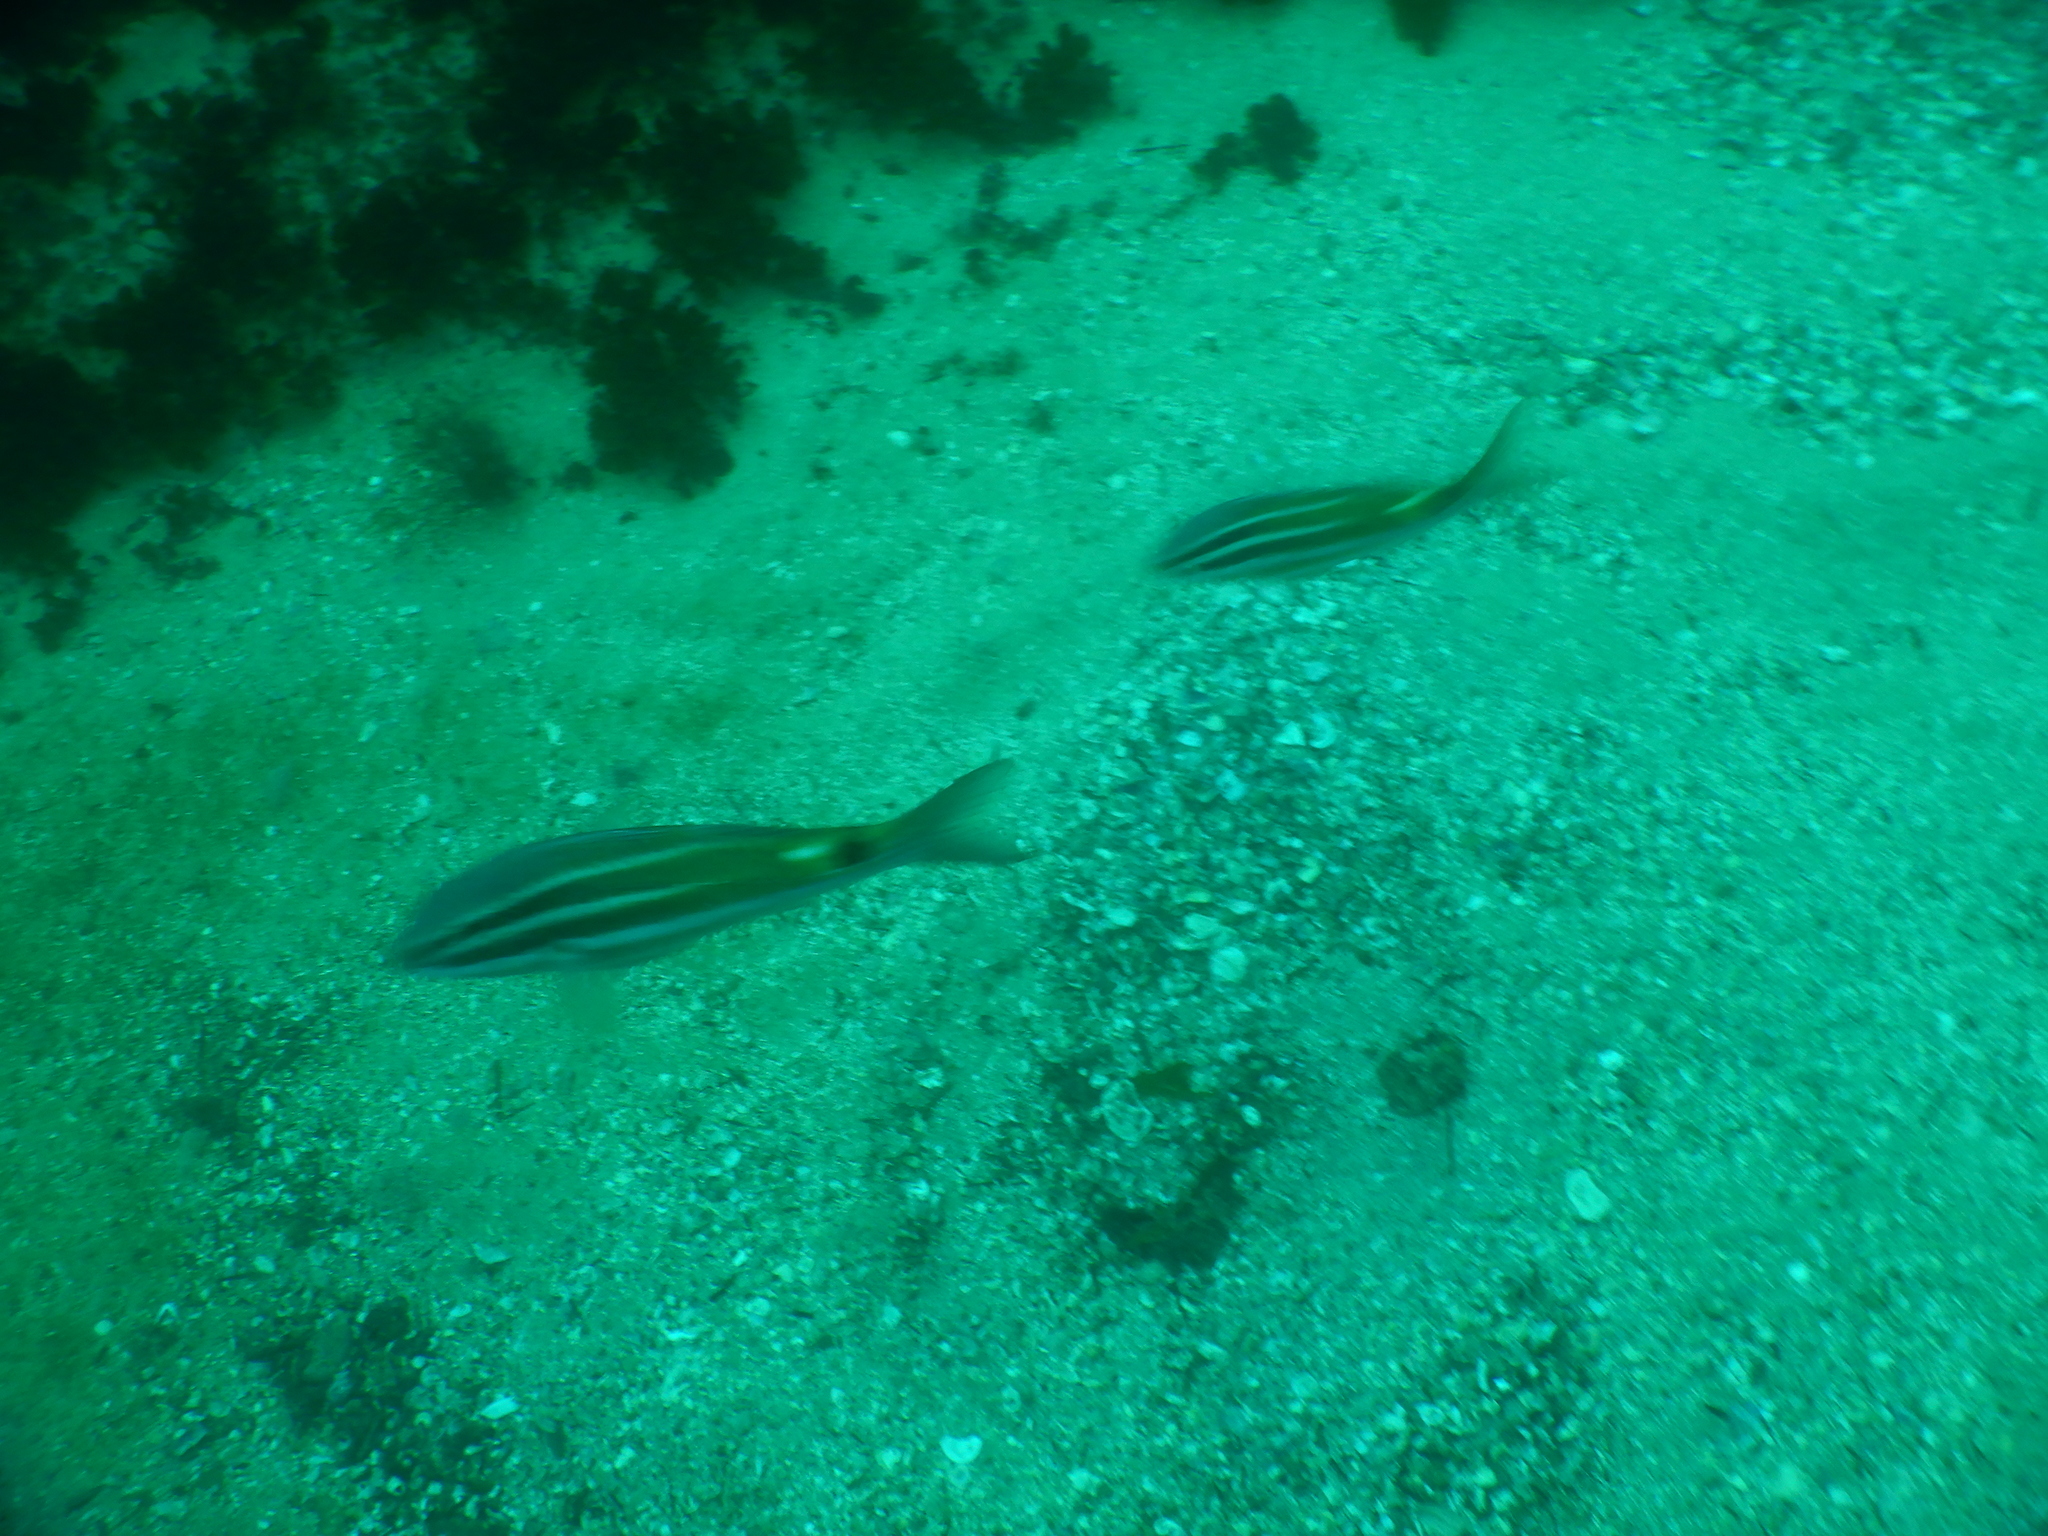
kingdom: Animalia
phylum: Chordata
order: Perciformes
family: Mullidae
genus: Parupeneus
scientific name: Parupeneus spilurus
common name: Blackspot goatfish
